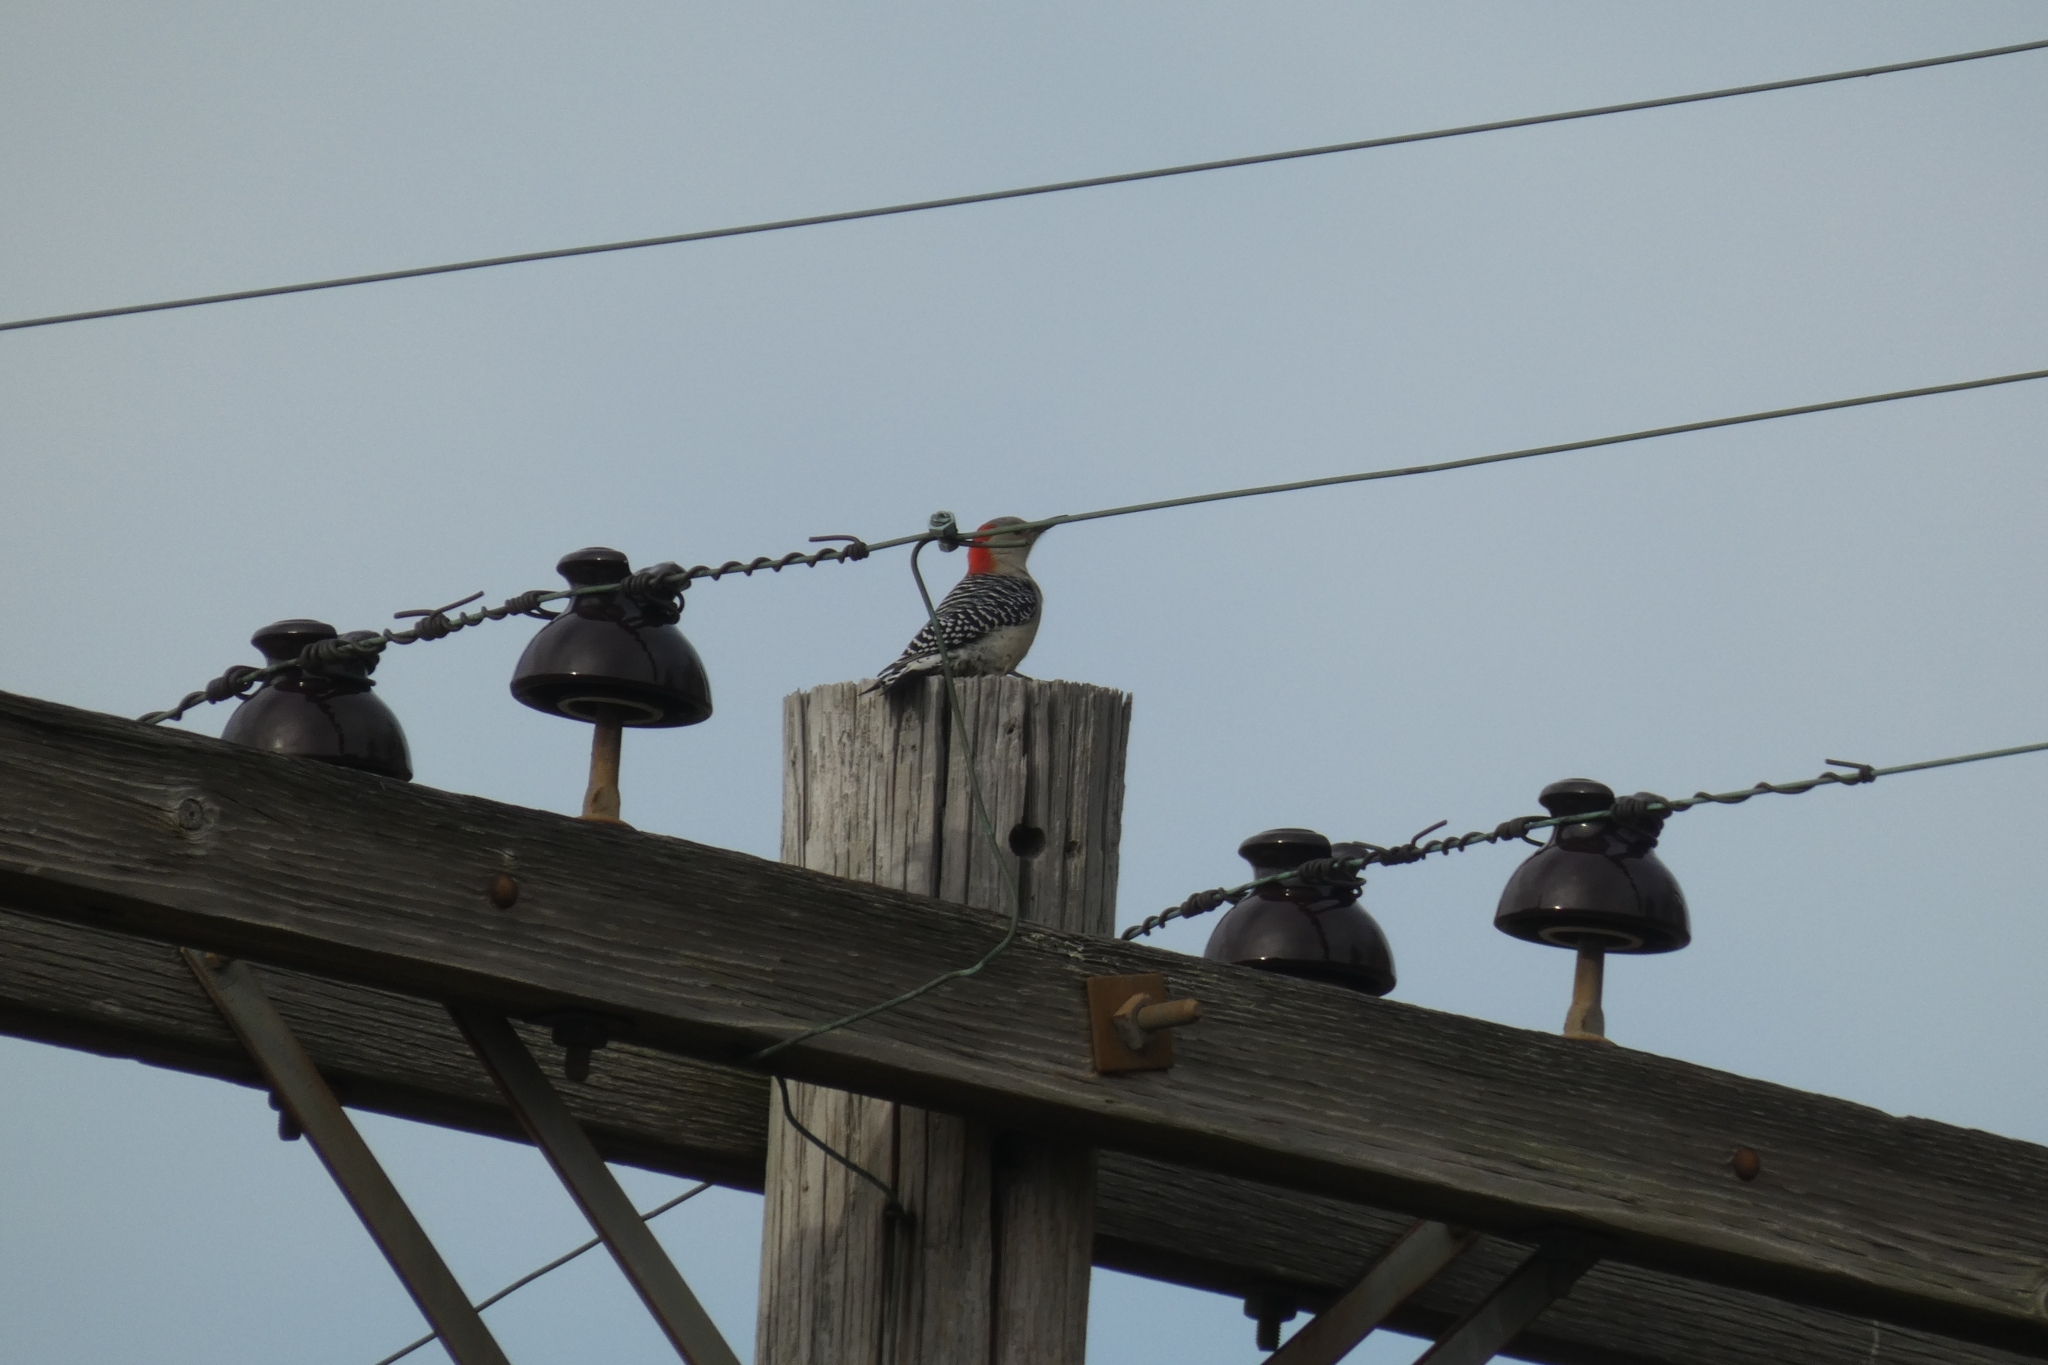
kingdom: Animalia
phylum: Chordata
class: Aves
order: Piciformes
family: Picidae
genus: Melanerpes
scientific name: Melanerpes carolinus
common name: Red-bellied woodpecker
